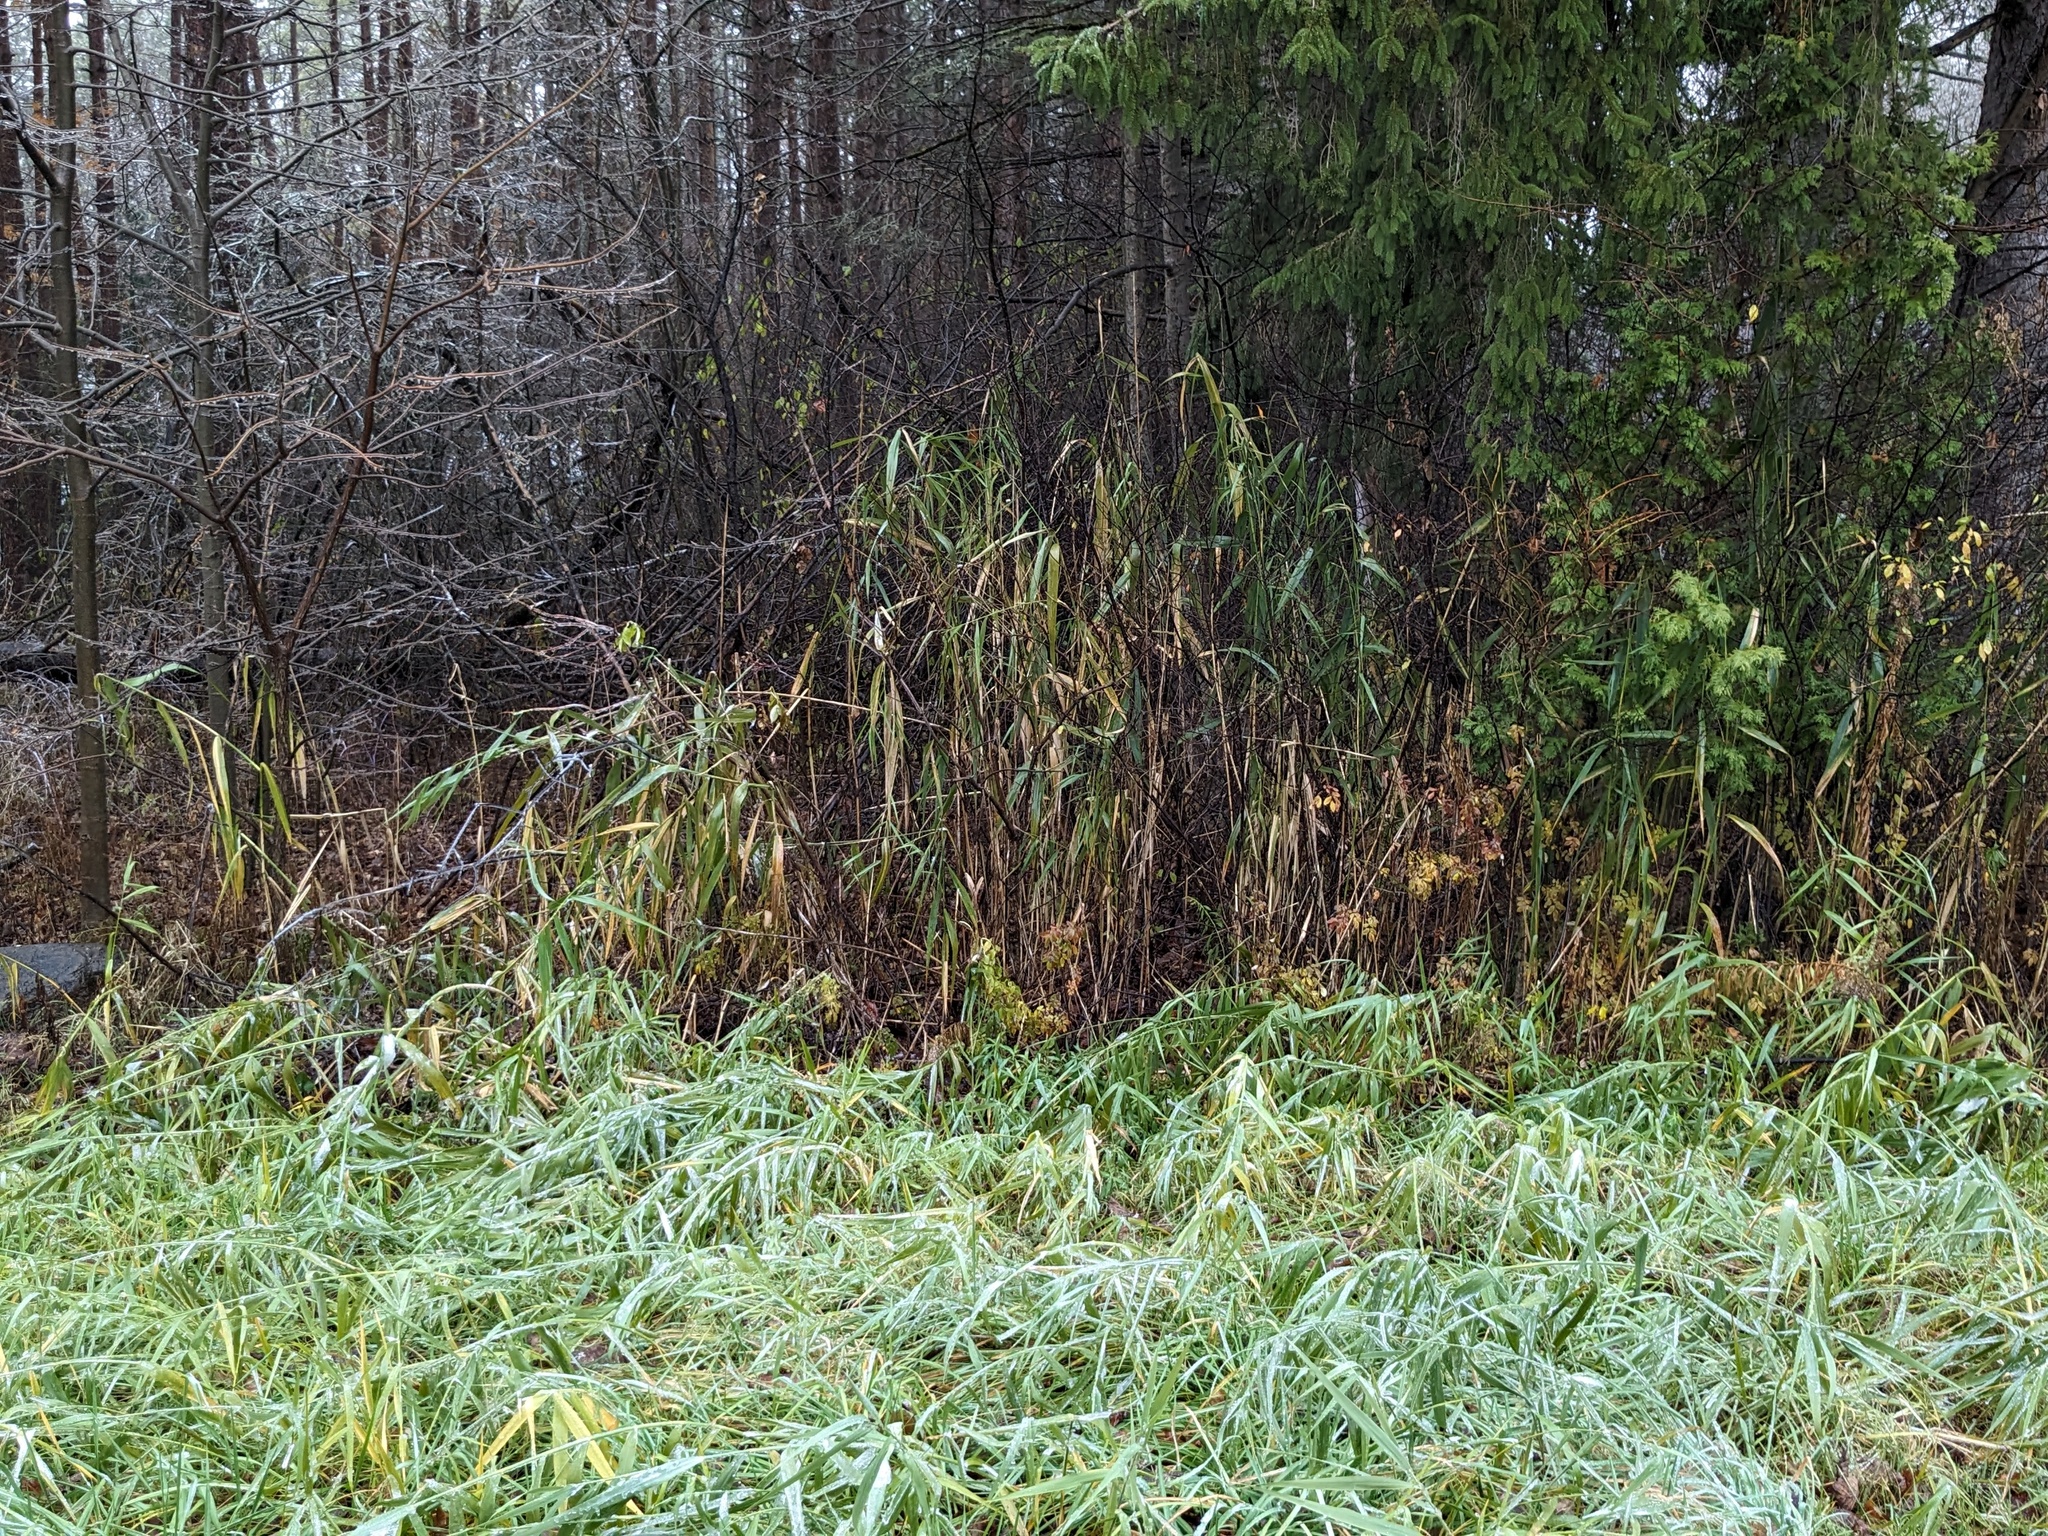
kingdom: Plantae
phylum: Tracheophyta
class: Liliopsida
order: Poales
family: Poaceae
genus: Phragmites
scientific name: Phragmites australis
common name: Common reed
